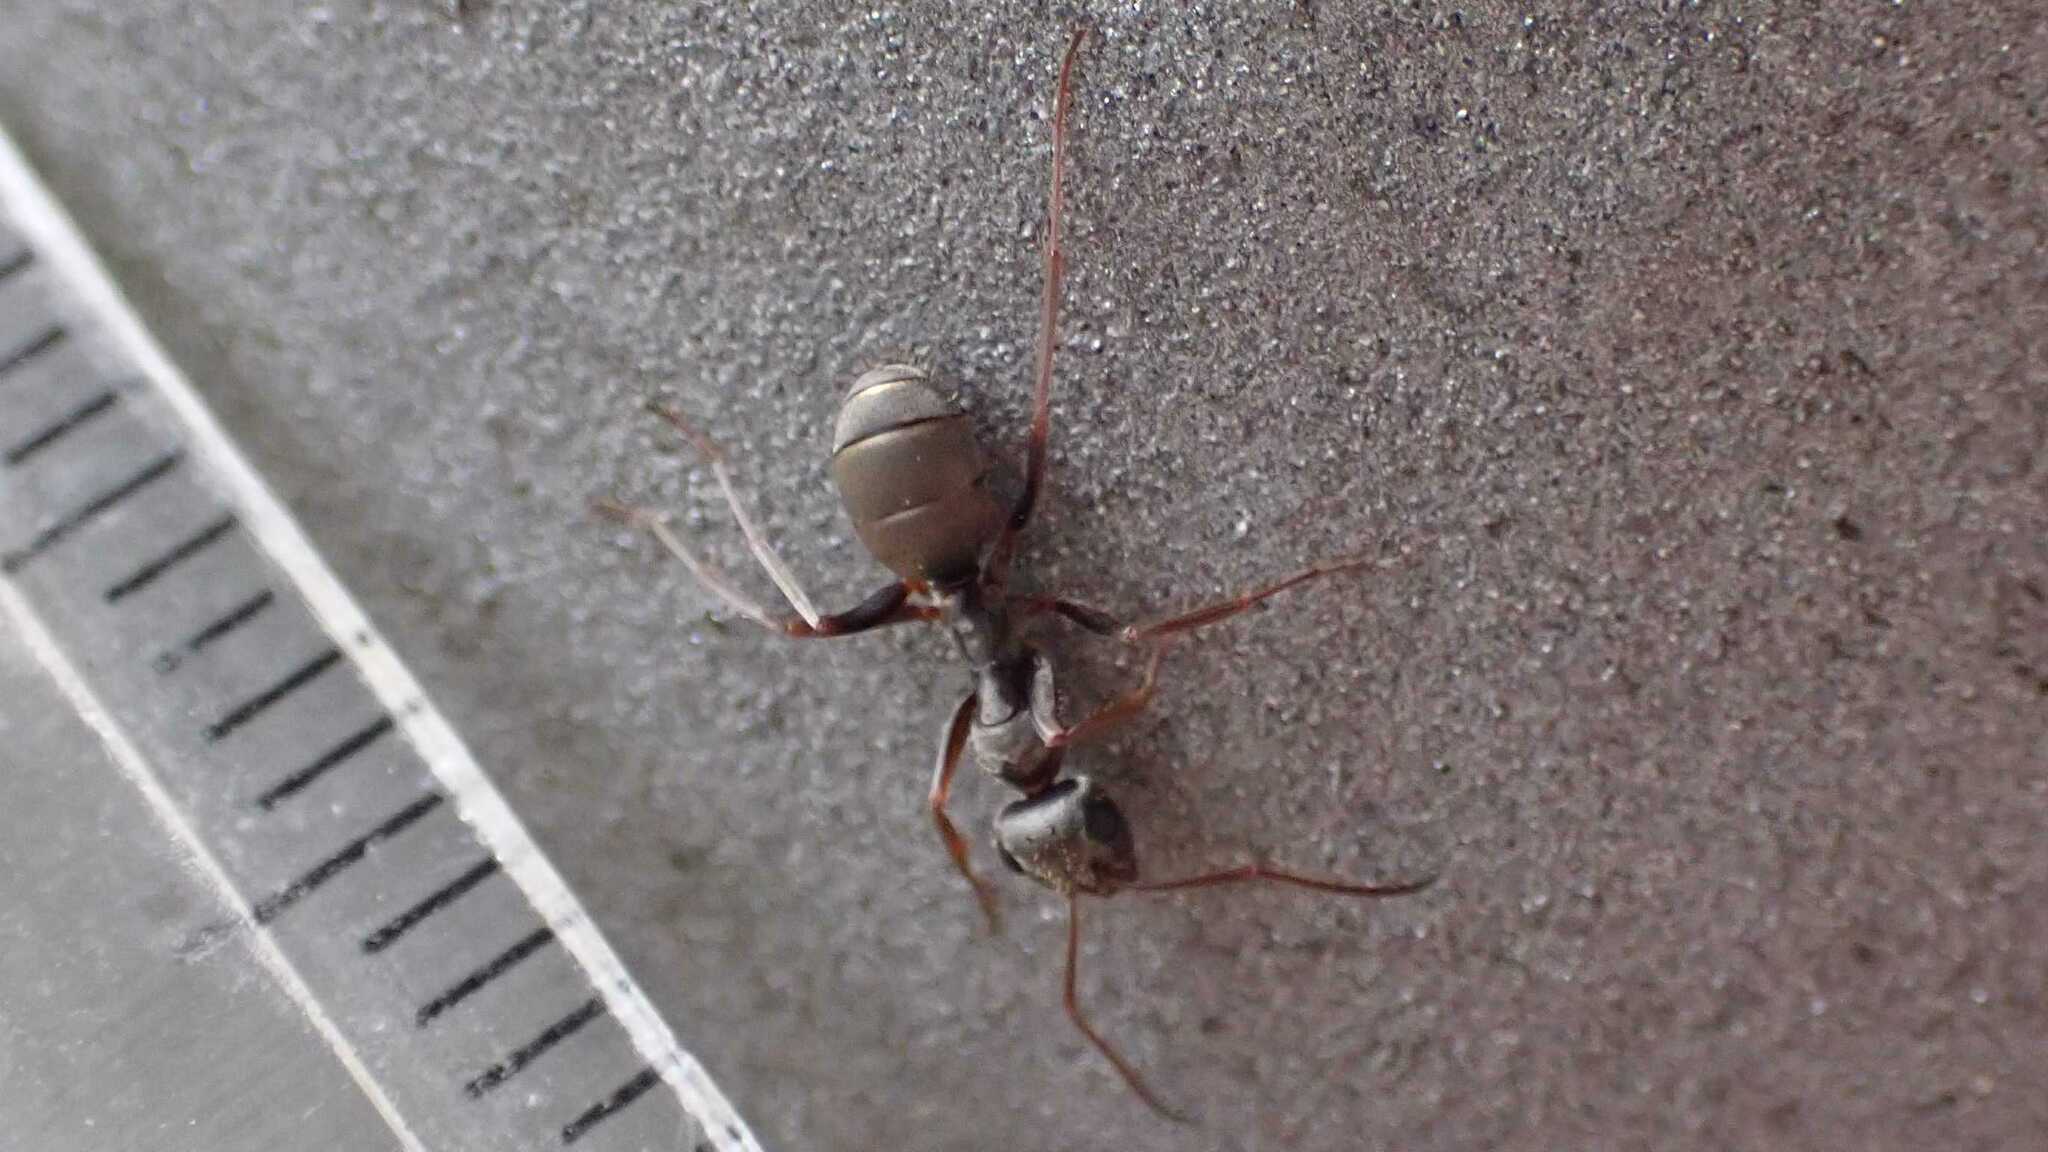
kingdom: Animalia
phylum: Arthropoda
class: Insecta
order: Hymenoptera
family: Formicidae
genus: Formica
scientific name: Formica cinerea
